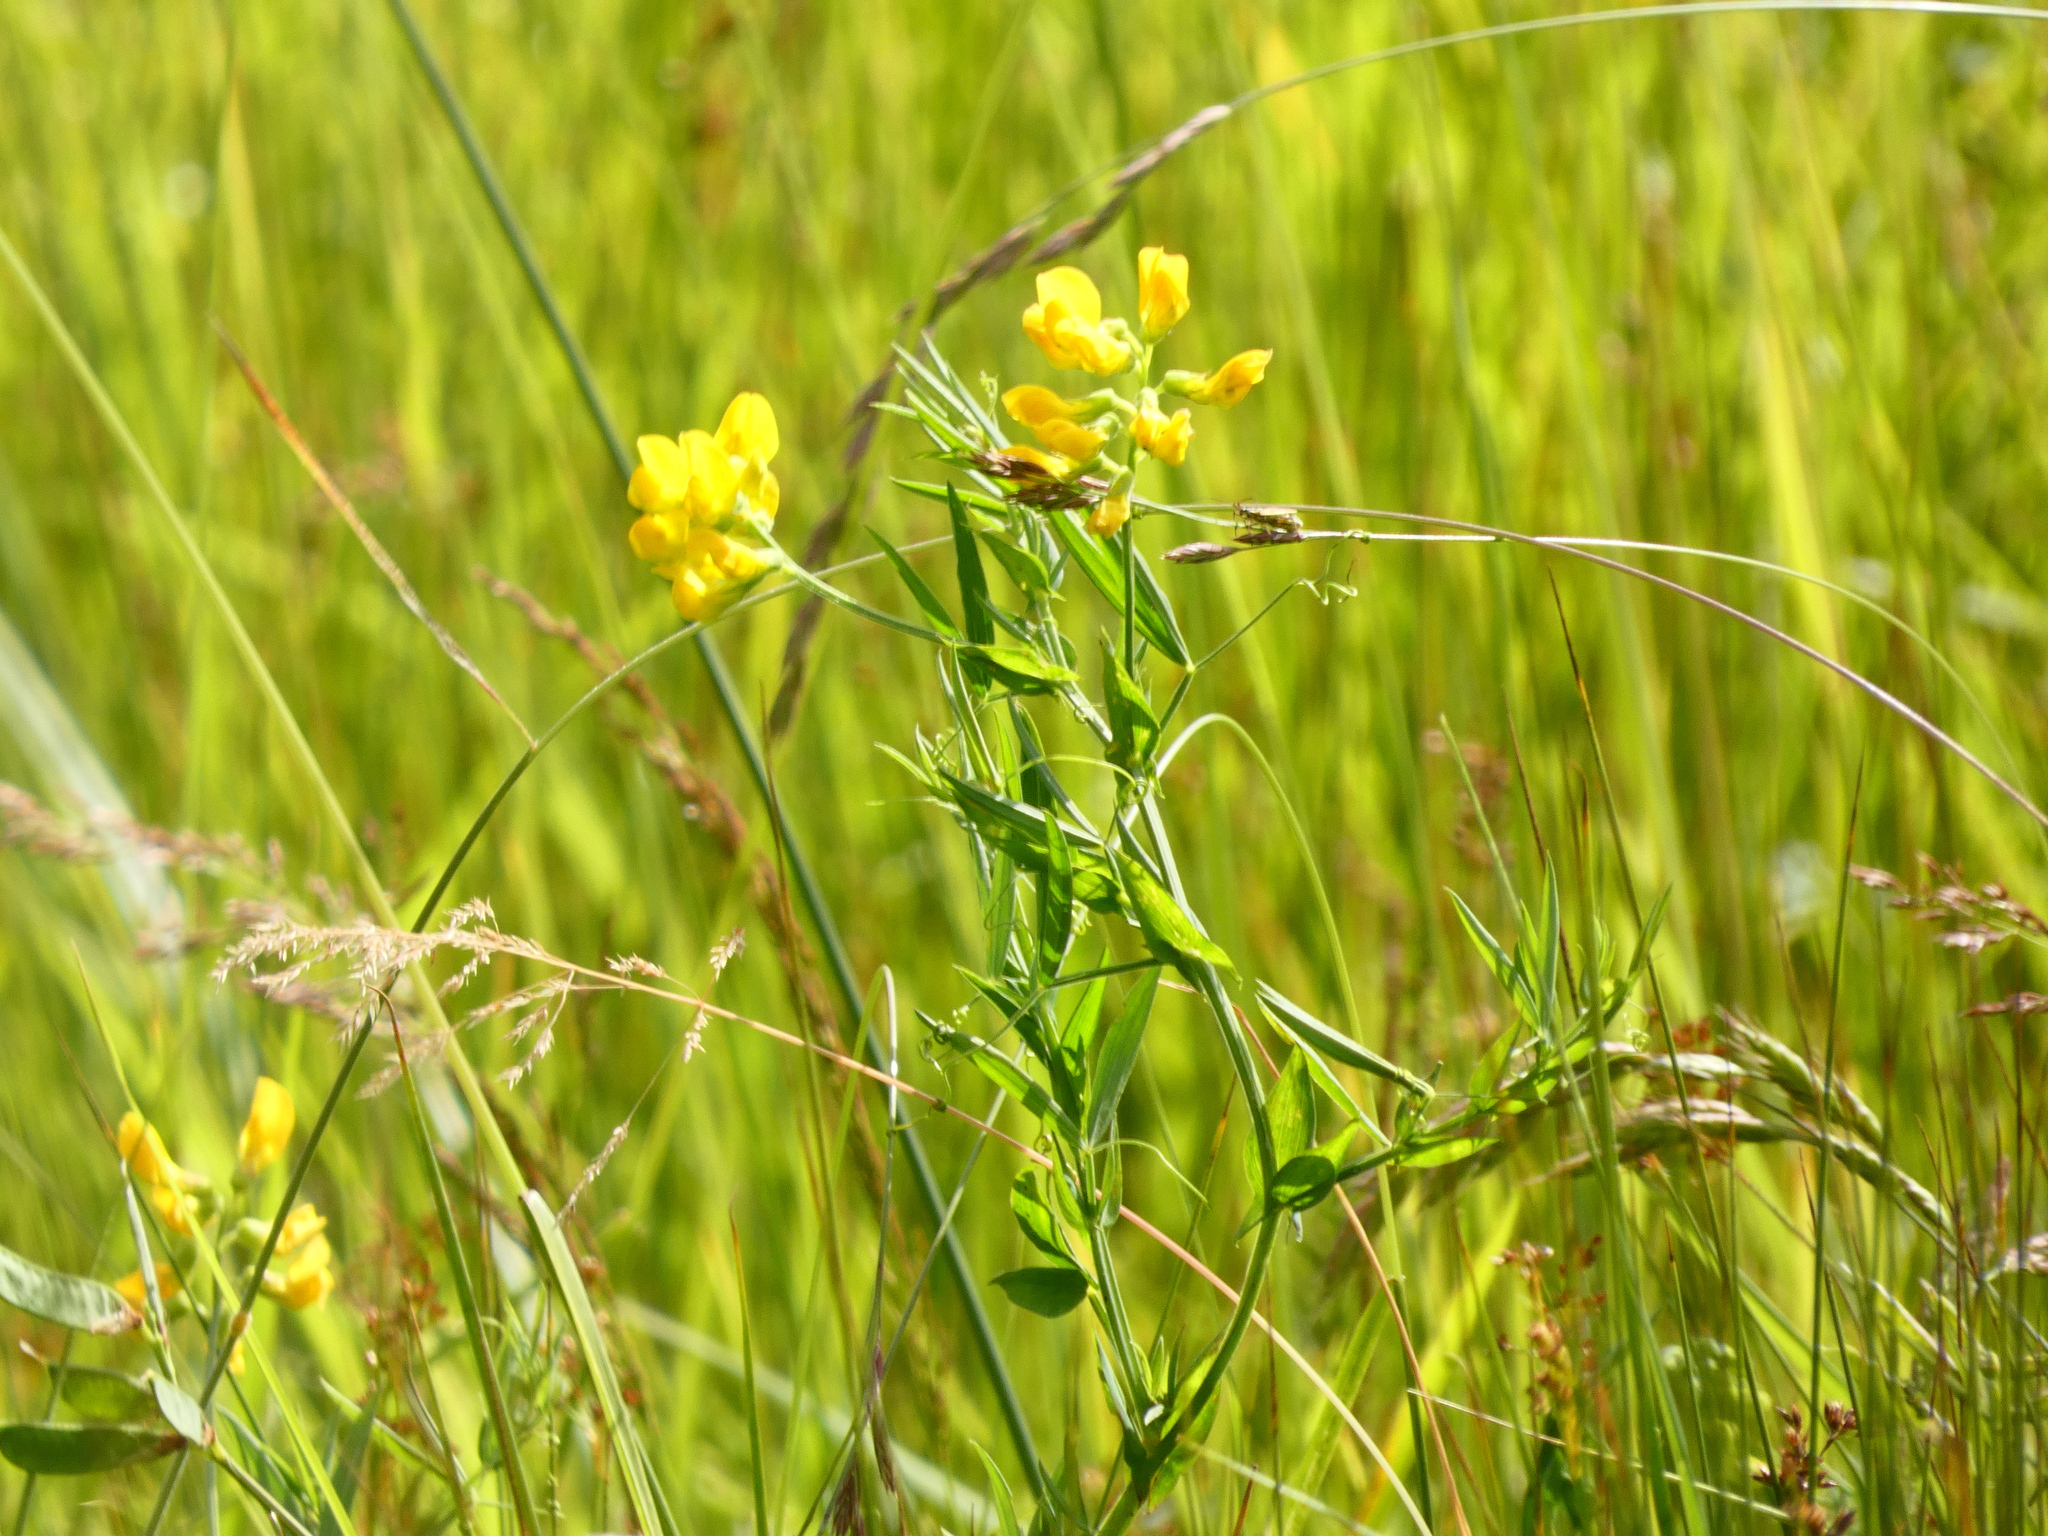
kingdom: Plantae
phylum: Tracheophyta
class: Magnoliopsida
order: Fabales
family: Fabaceae
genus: Lathyrus
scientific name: Lathyrus pratensis
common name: Meadow vetchling
